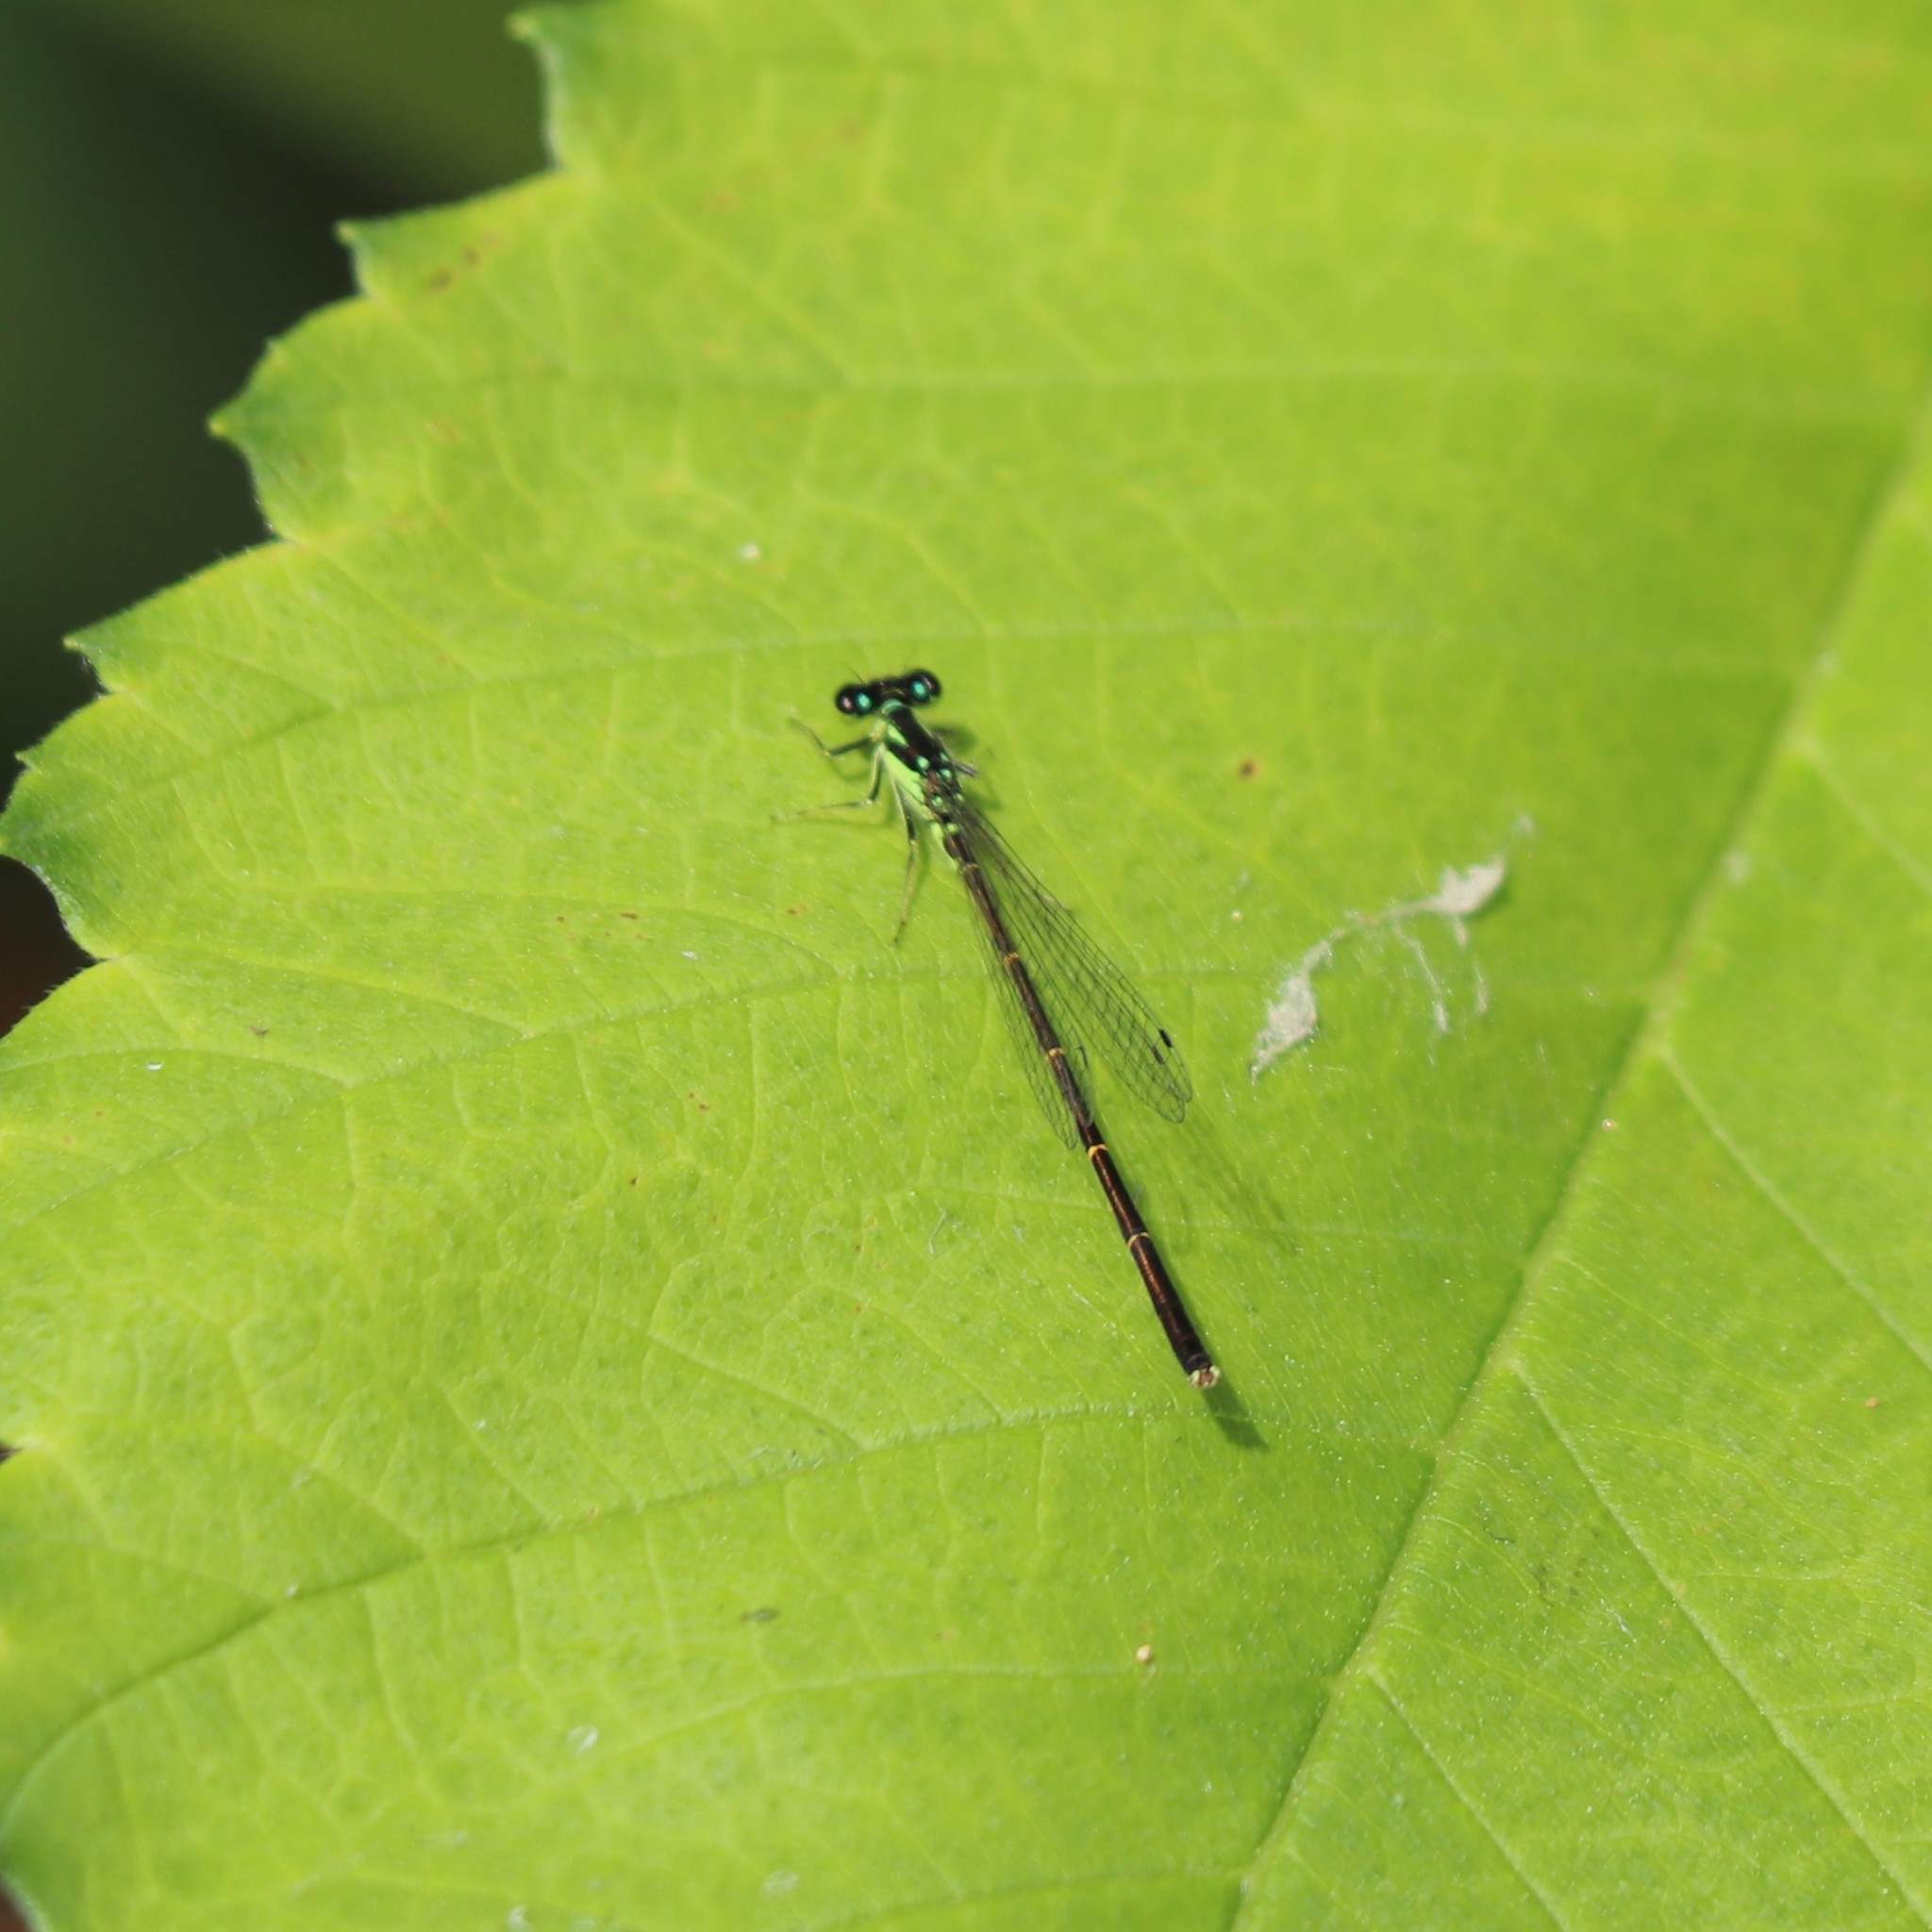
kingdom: Animalia
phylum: Arthropoda
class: Insecta
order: Odonata
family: Coenagrionidae
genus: Ischnura
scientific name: Ischnura posita
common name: Fragile forktail
